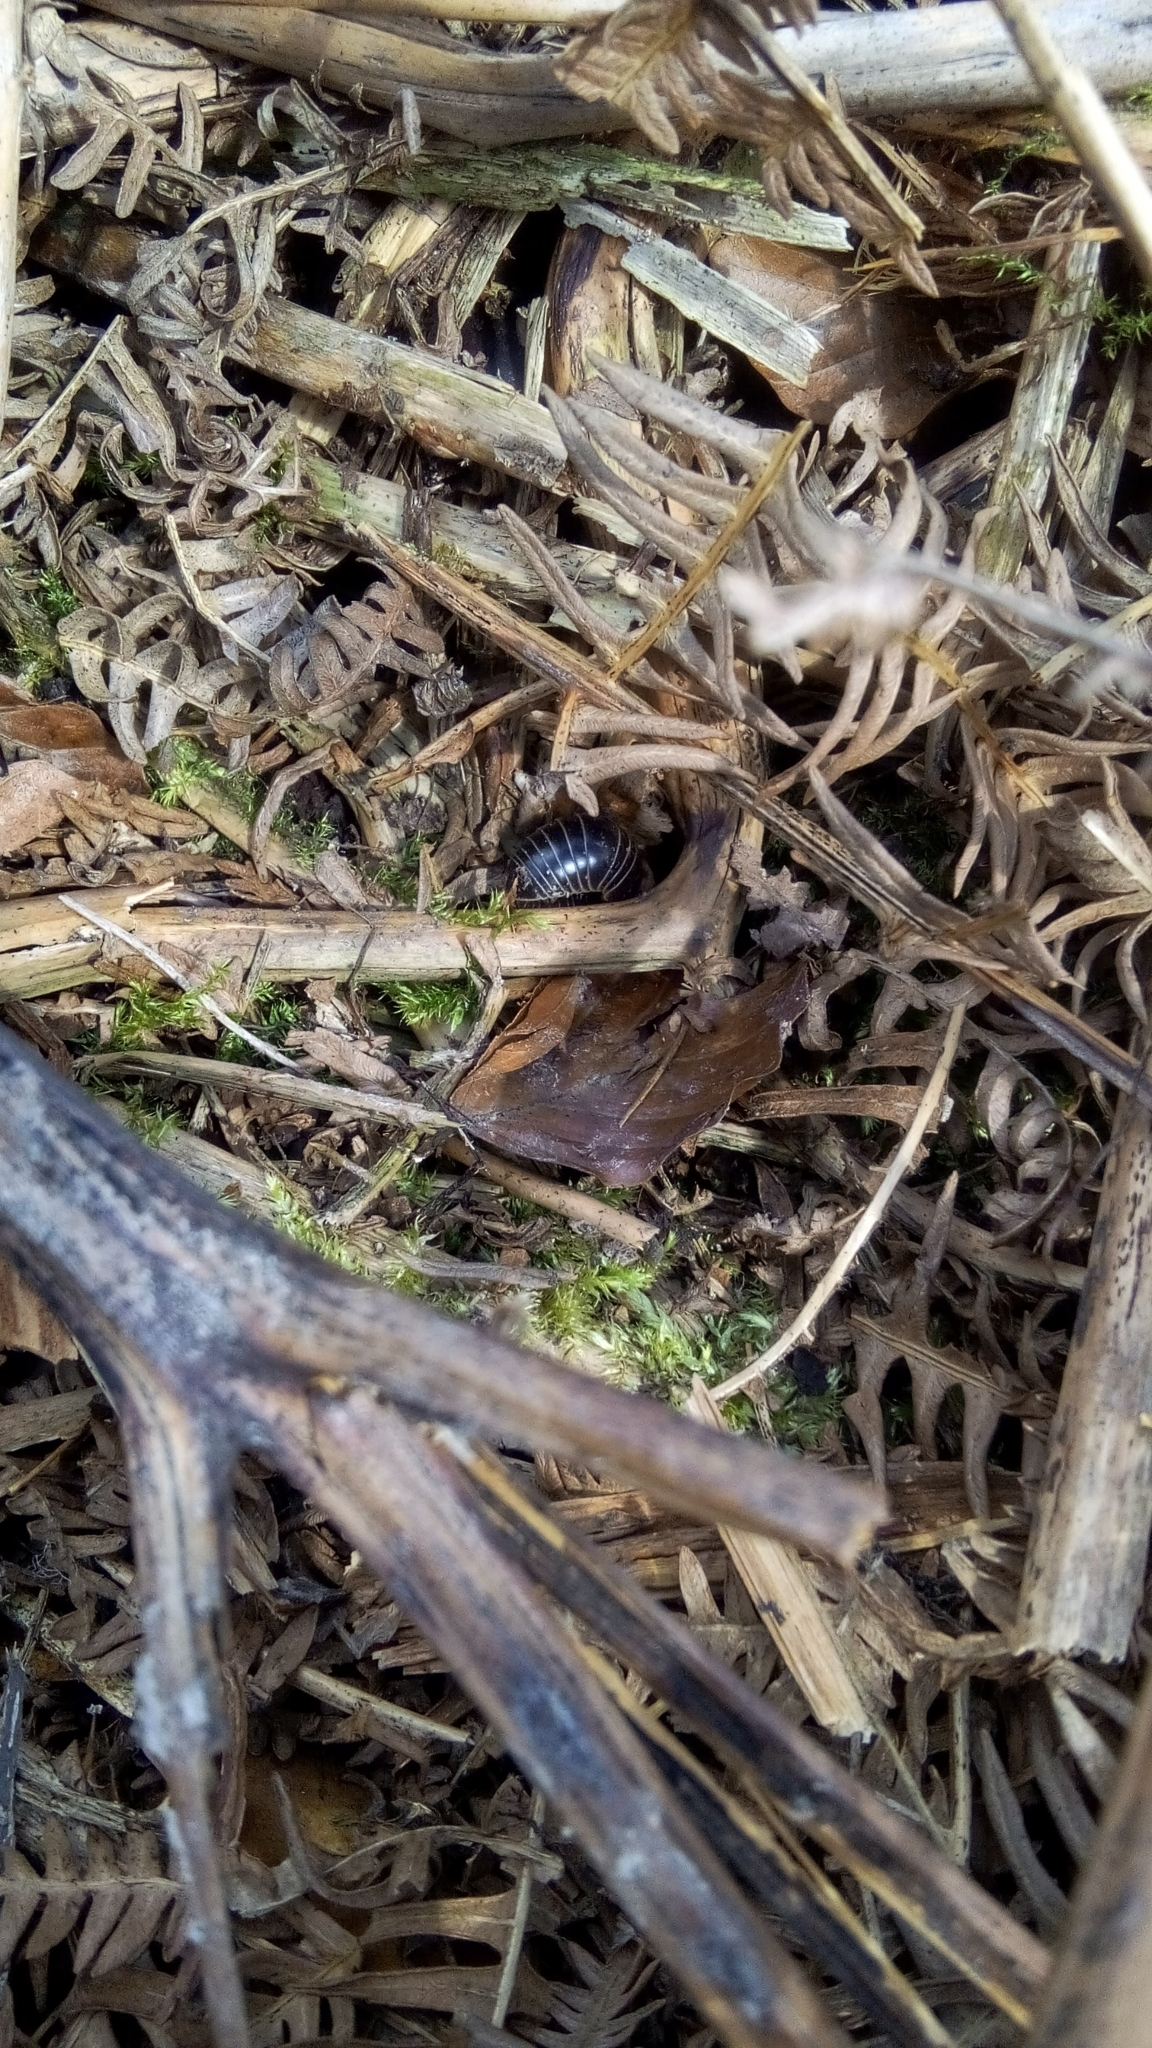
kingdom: Animalia
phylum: Arthropoda
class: Diplopoda
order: Glomerida
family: Glomeridae
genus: Glomeris
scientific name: Glomeris marginata
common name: Bordered pill millipede
